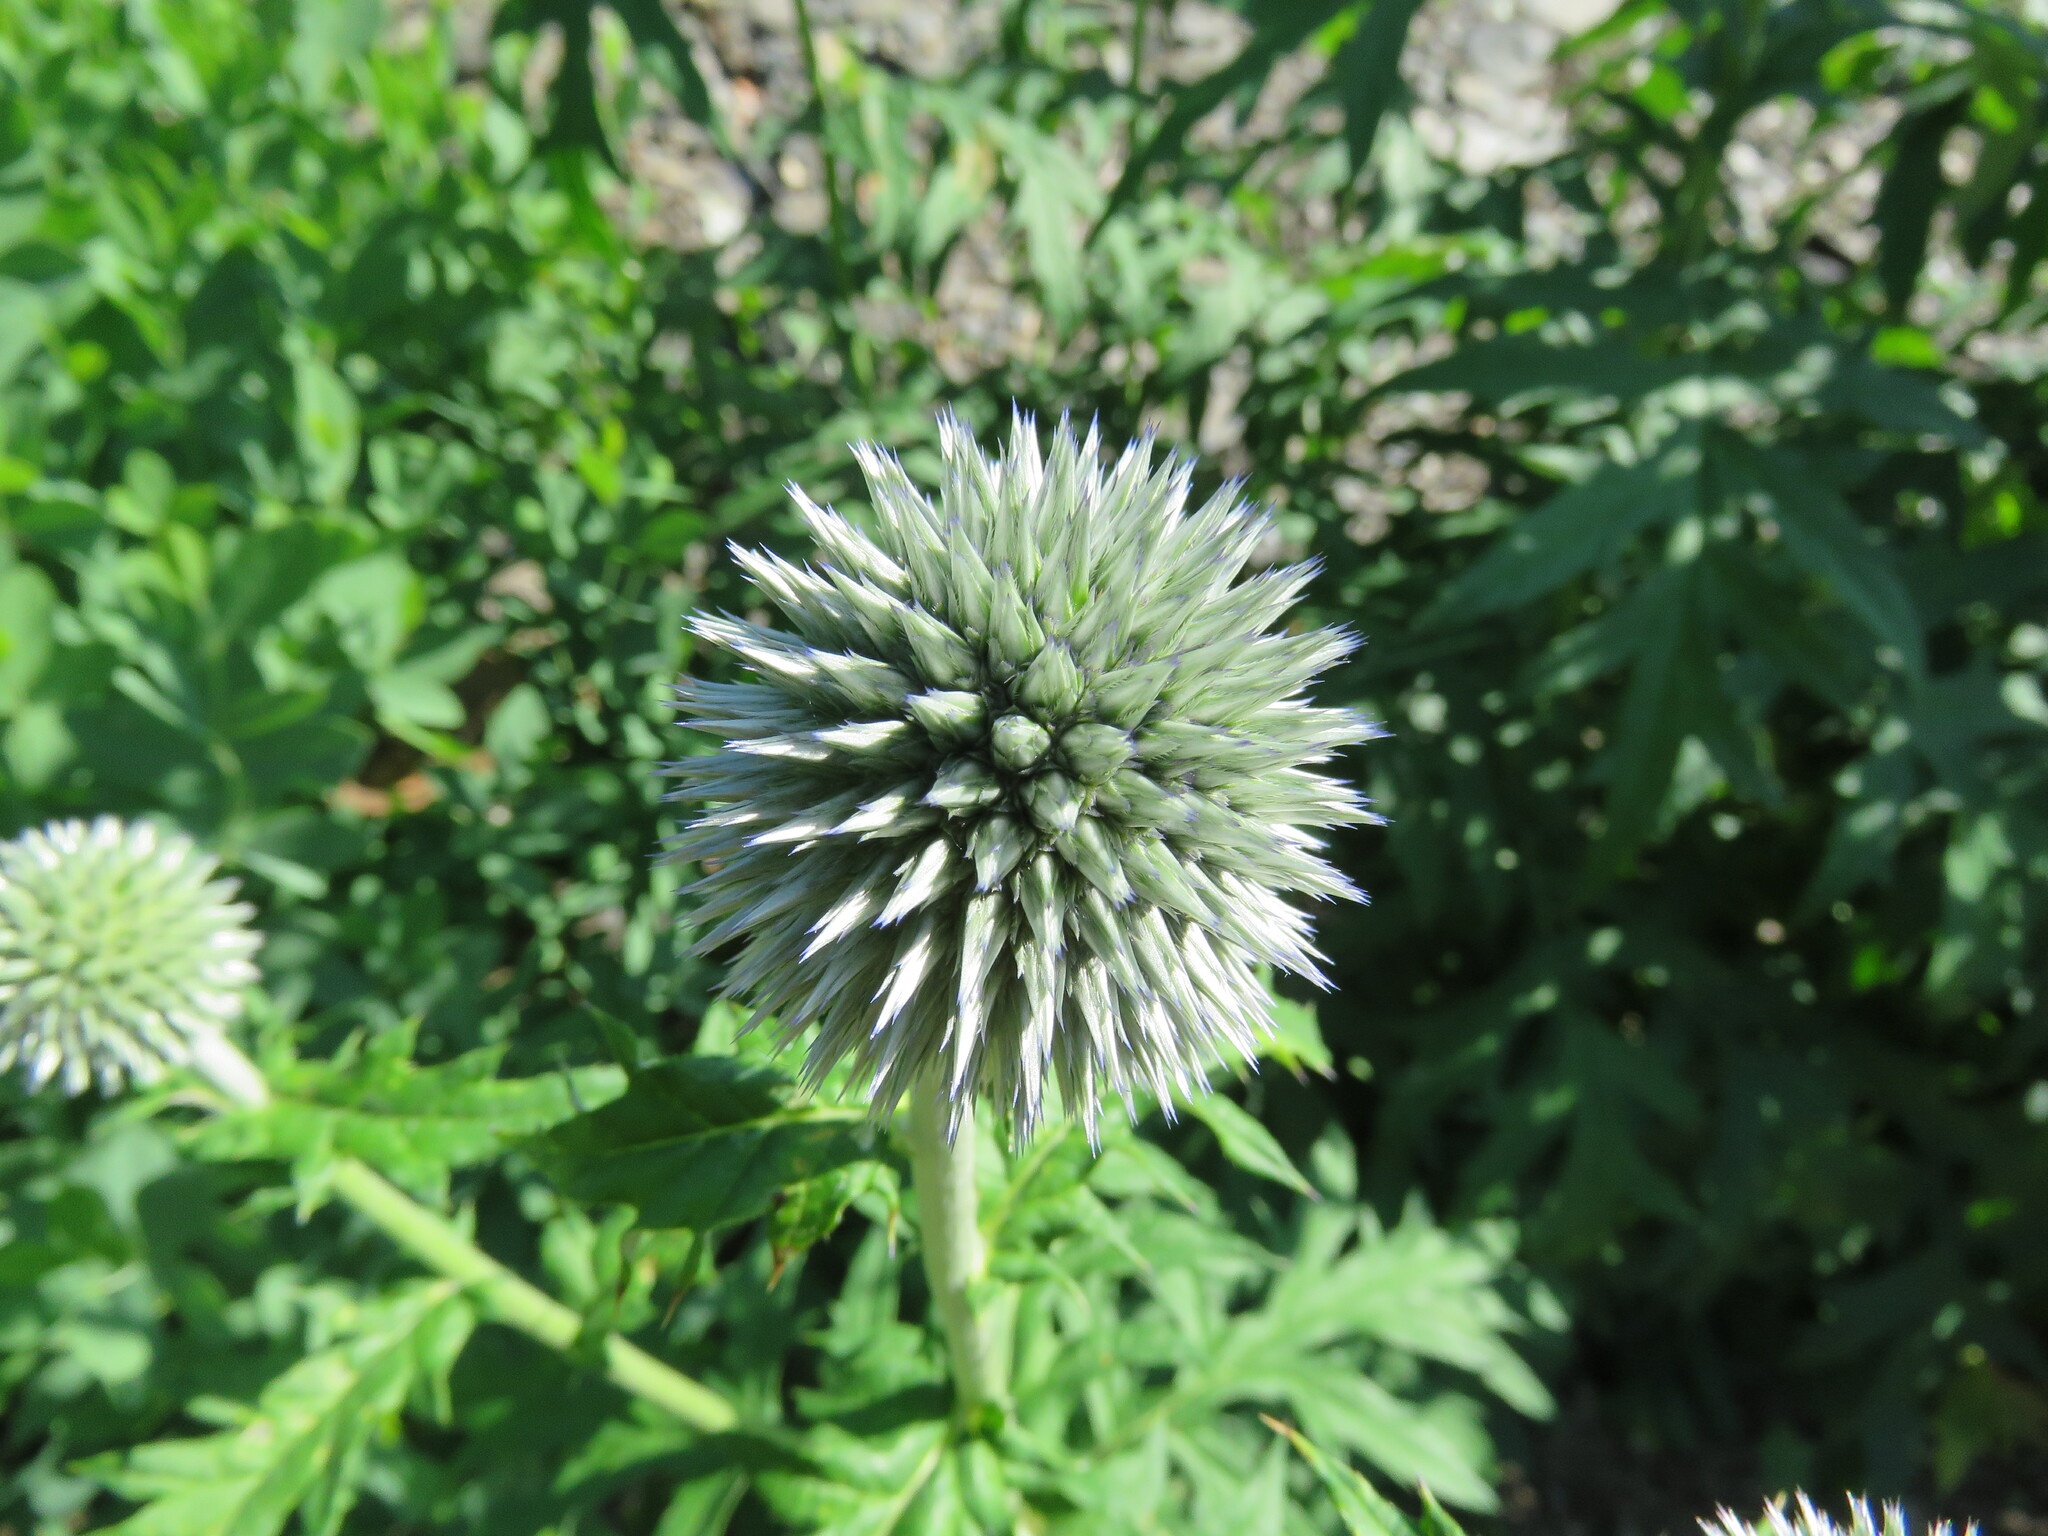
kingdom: Plantae
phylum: Tracheophyta
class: Magnoliopsida
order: Asterales
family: Asteraceae
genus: Echinops
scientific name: Echinops bannaticus
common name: Blue globe-thistle
